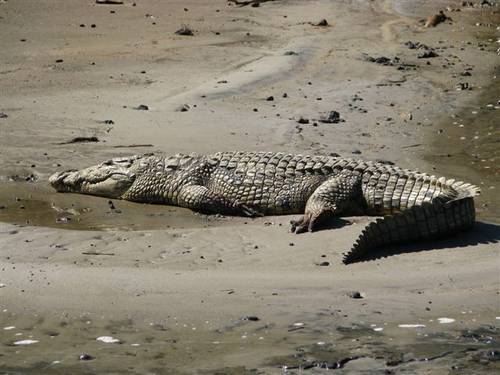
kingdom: Animalia
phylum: Chordata
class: Crocodylia
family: Crocodylidae
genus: Crocodylus
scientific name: Crocodylus niloticus
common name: Nile crocodile
